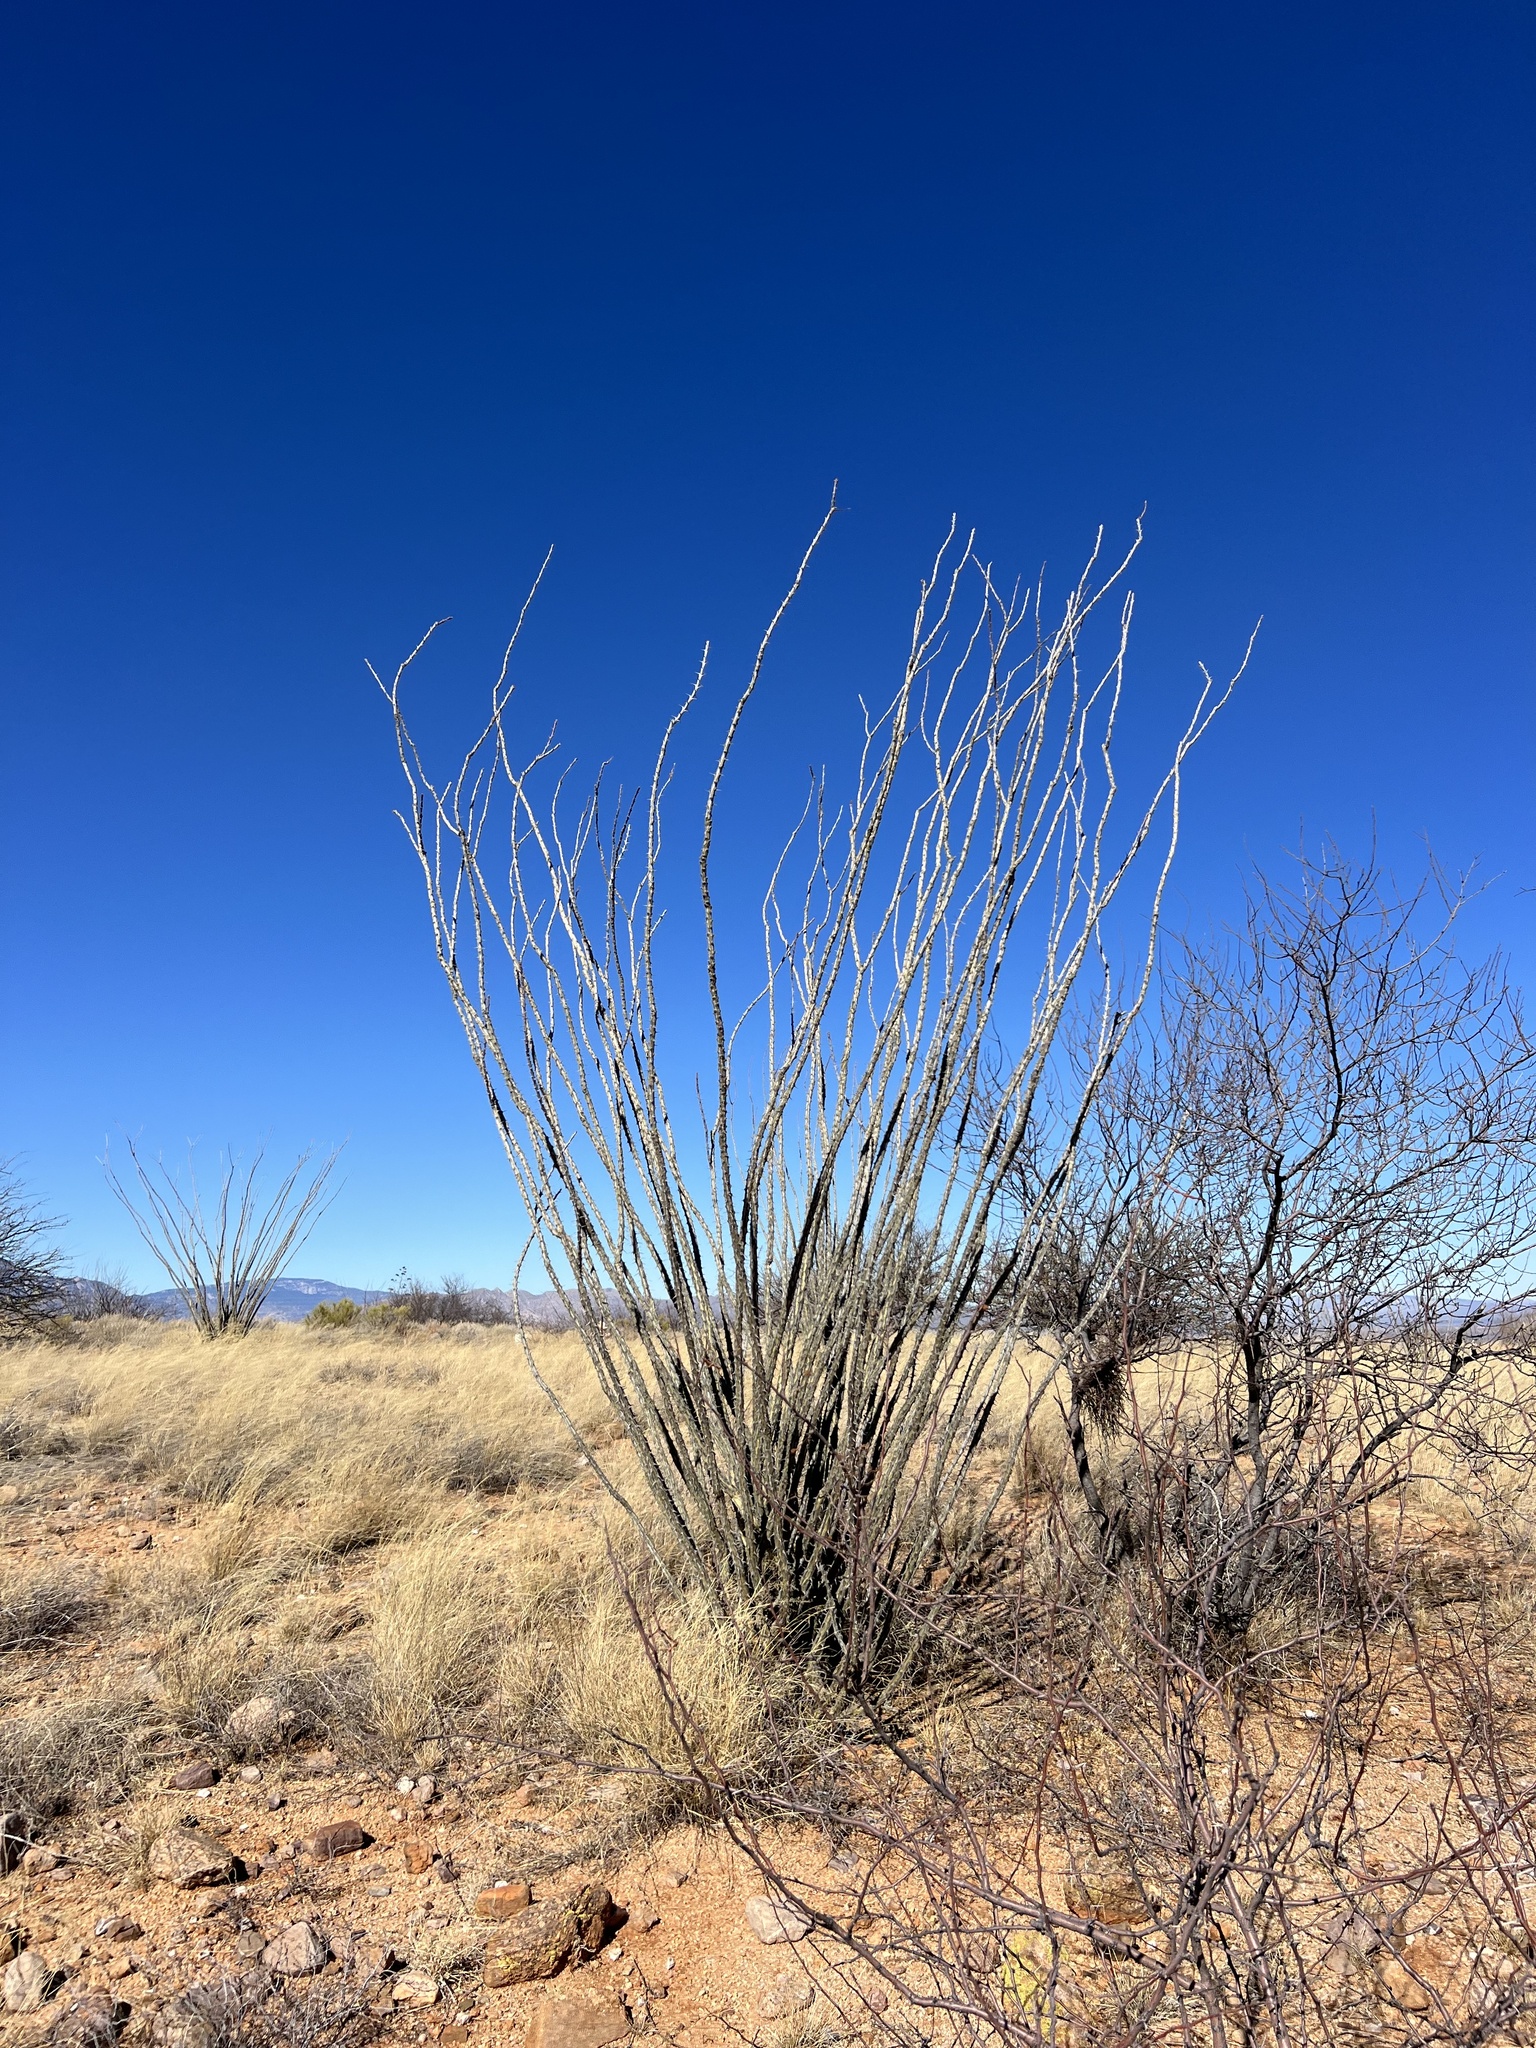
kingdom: Plantae
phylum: Tracheophyta
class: Magnoliopsida
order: Ericales
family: Fouquieriaceae
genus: Fouquieria
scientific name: Fouquieria splendens
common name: Vine-cactus
